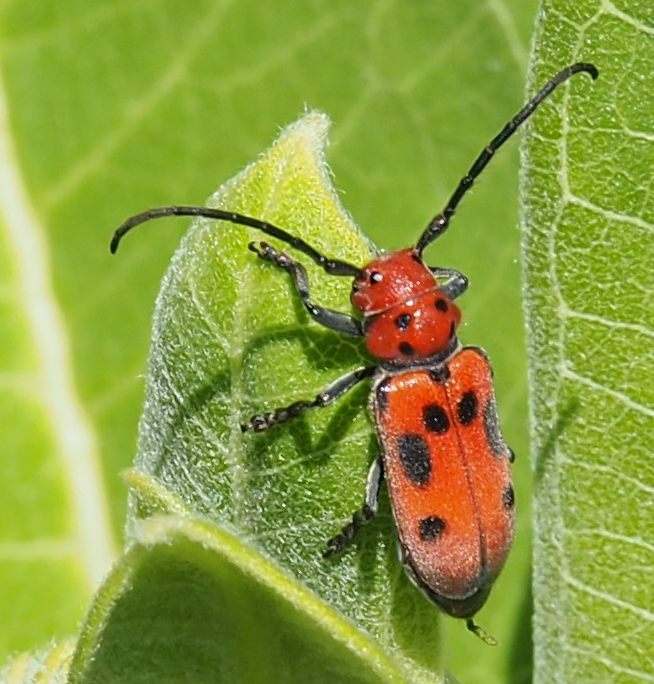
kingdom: Animalia
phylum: Arthropoda
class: Insecta
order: Coleoptera
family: Cerambycidae
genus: Tetraopes
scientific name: Tetraopes tetrophthalmus
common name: Red milkweed beetle
